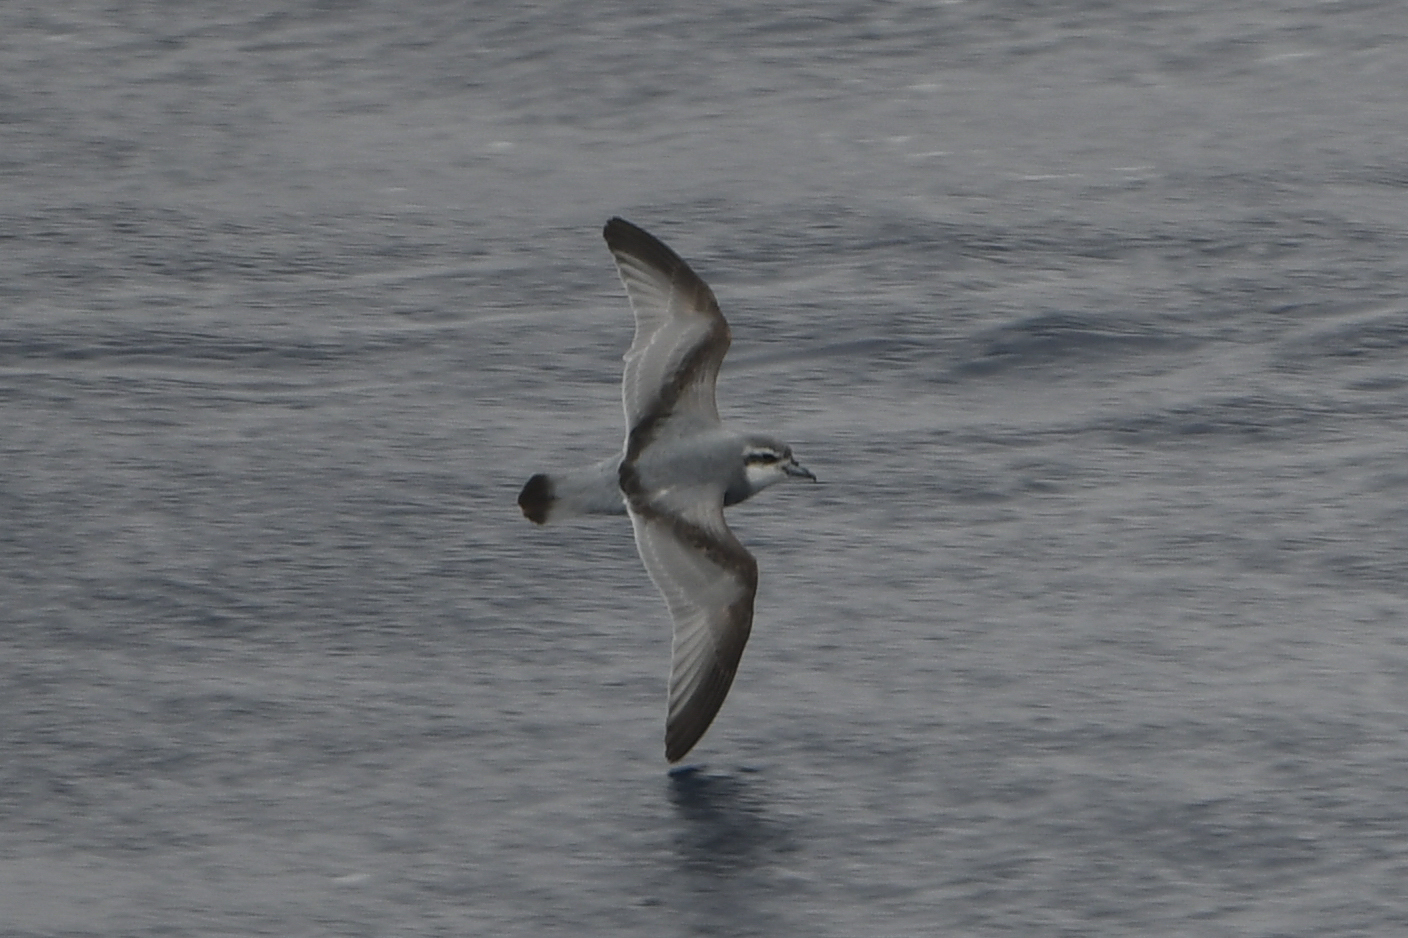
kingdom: Animalia
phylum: Chordata
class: Aves
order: Procellariiformes
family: Procellariidae
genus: Pachyptila
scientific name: Pachyptila desolata
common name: Antarctic prion
